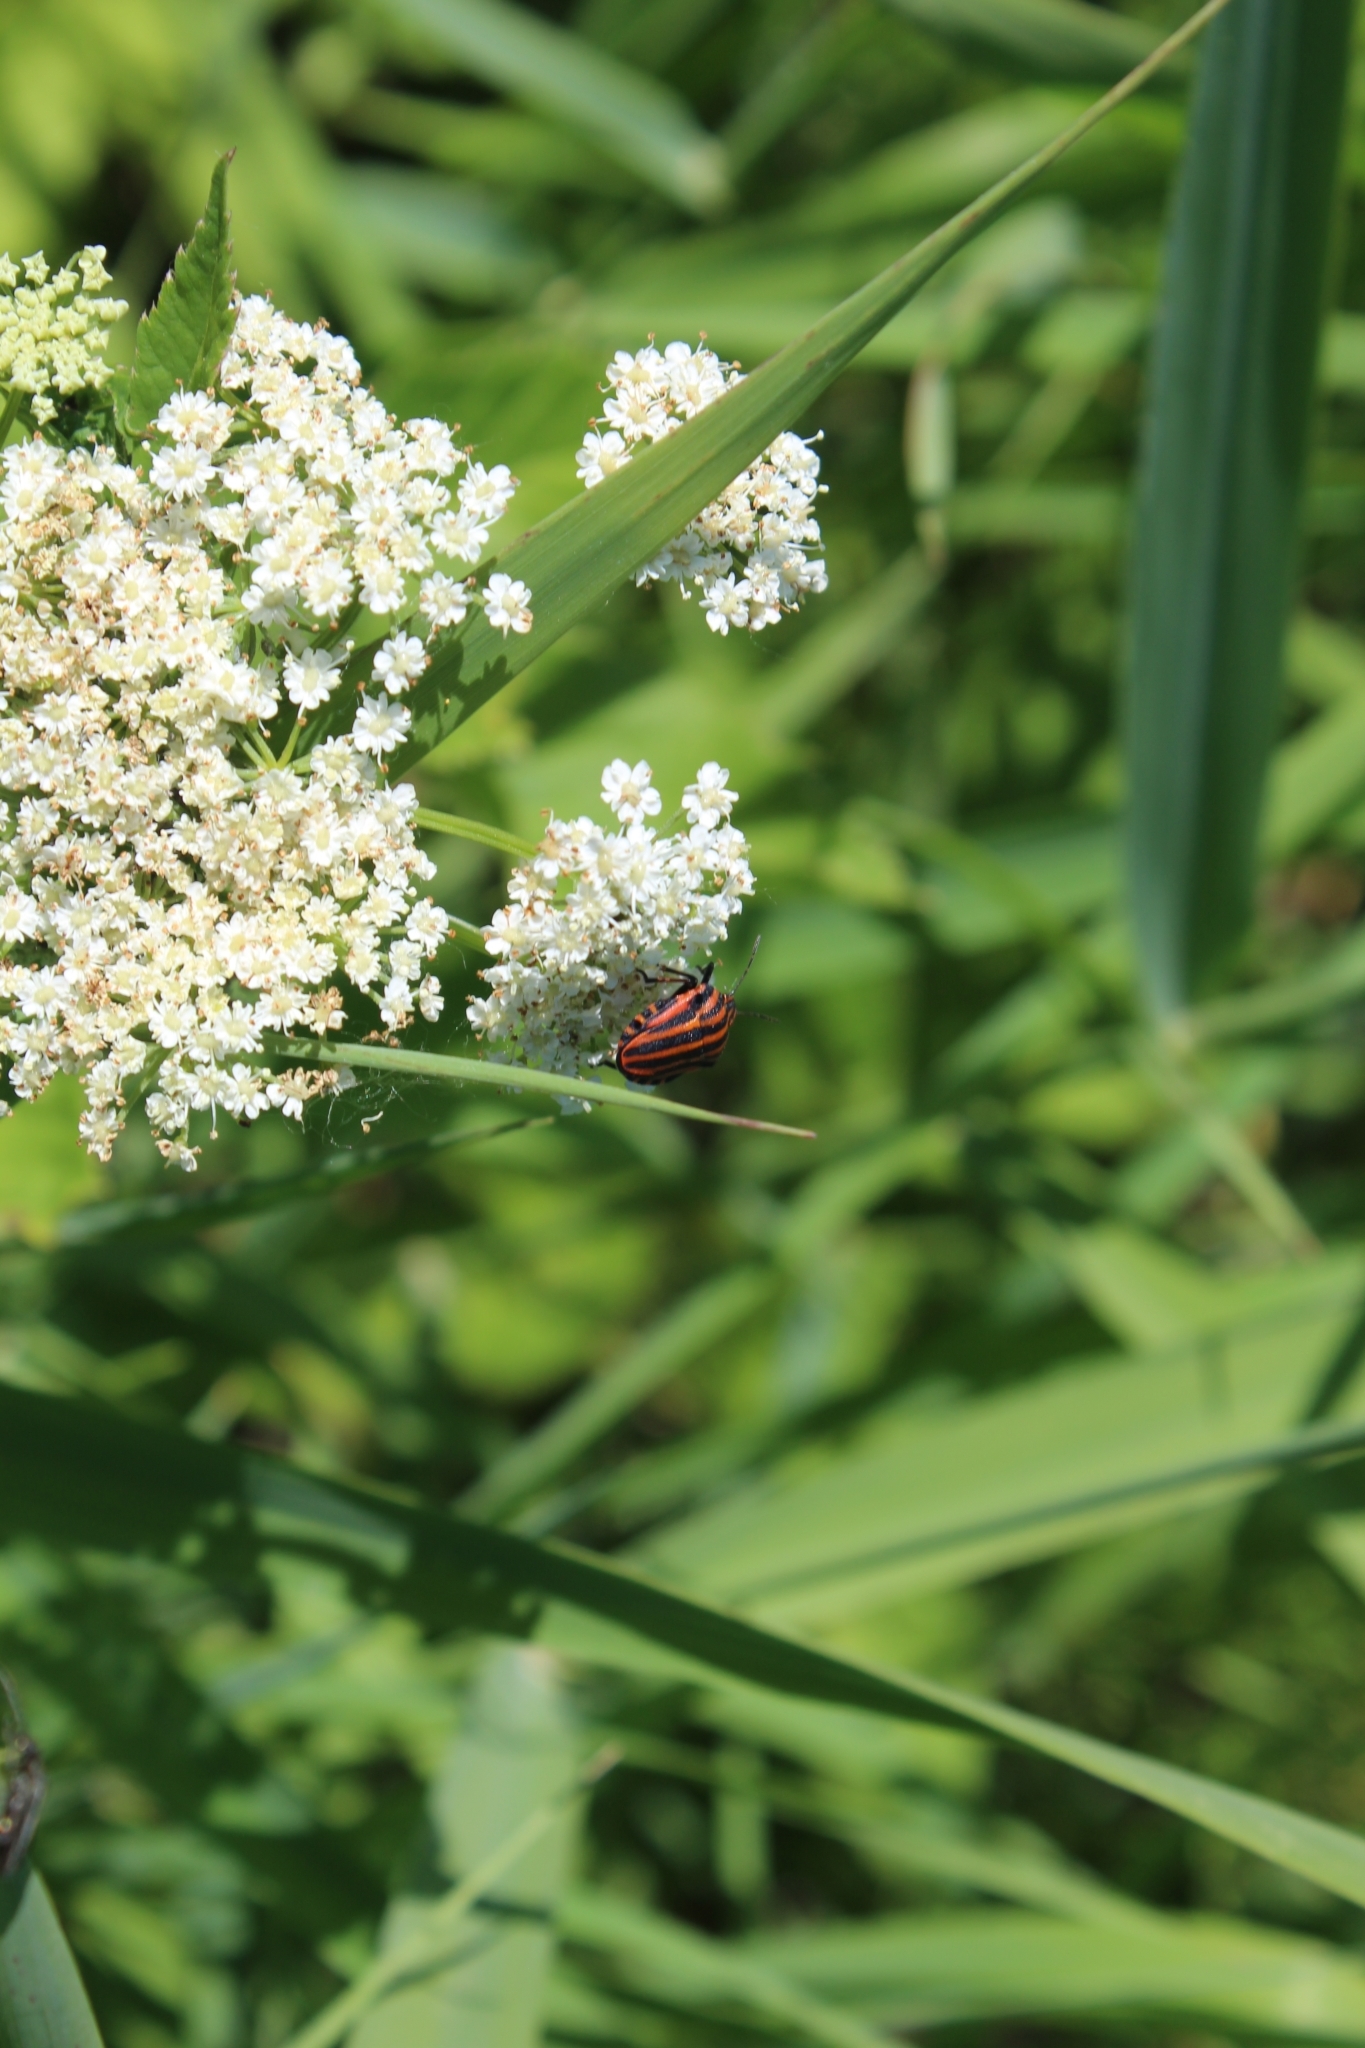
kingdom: Animalia
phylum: Arthropoda
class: Insecta
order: Hemiptera
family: Pentatomidae
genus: Graphosoma
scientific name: Graphosoma italicum
